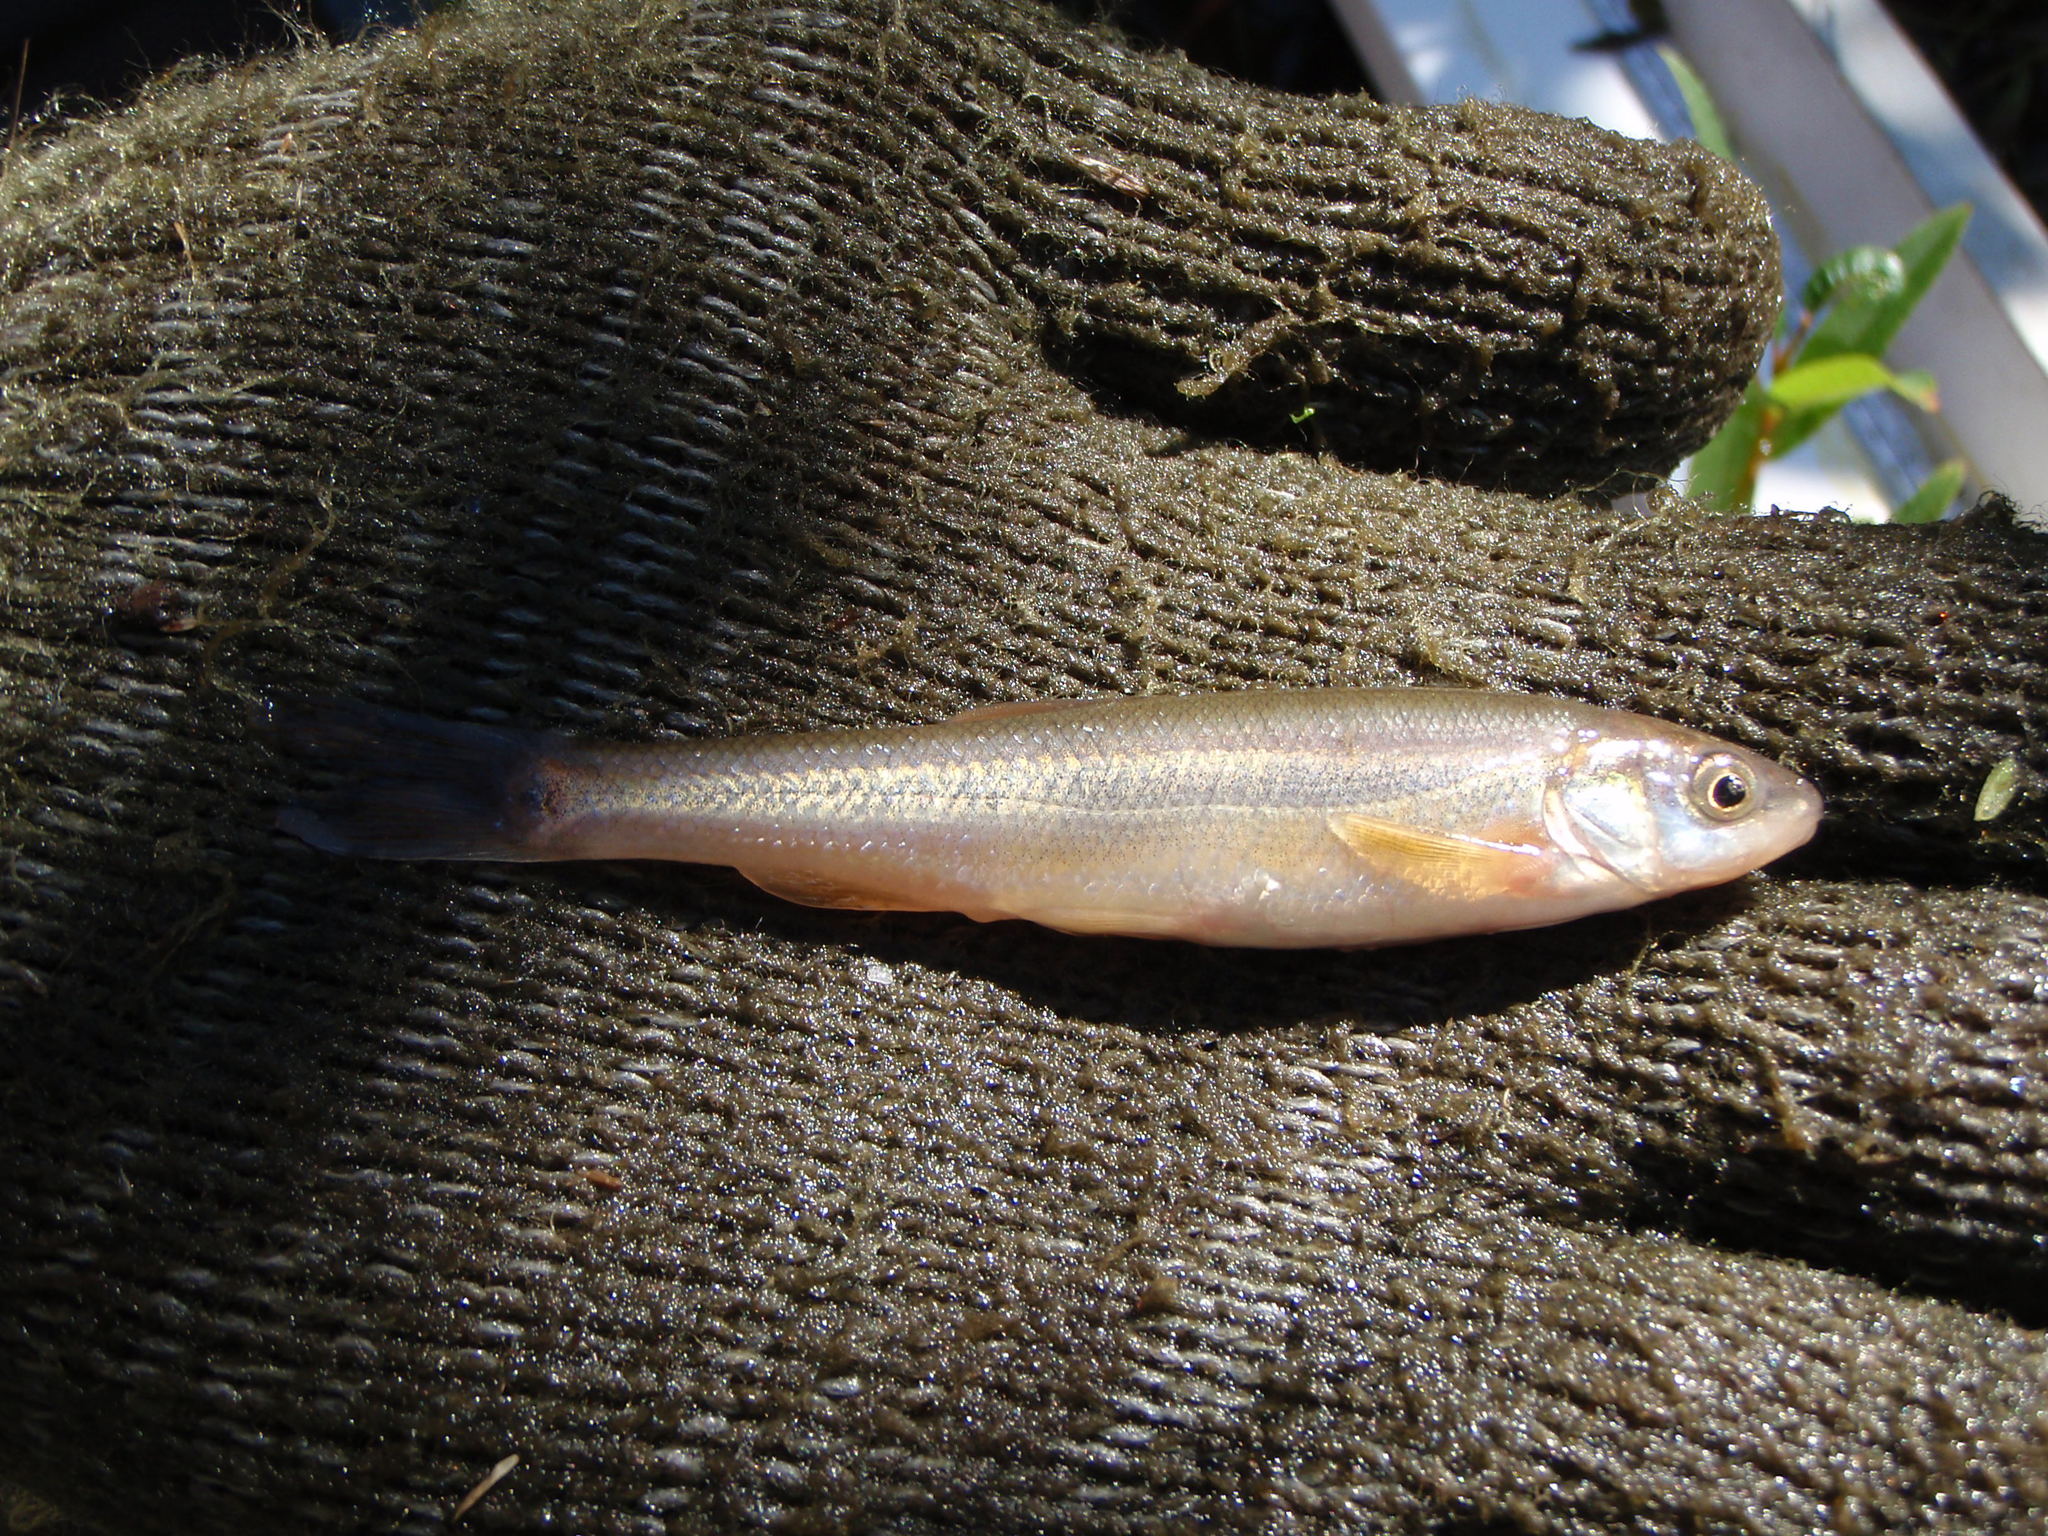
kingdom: Animalia
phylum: Chordata
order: Cypriniformes
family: Cyprinidae
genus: Couesius
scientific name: Couesius plumbeus
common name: Lake chub
